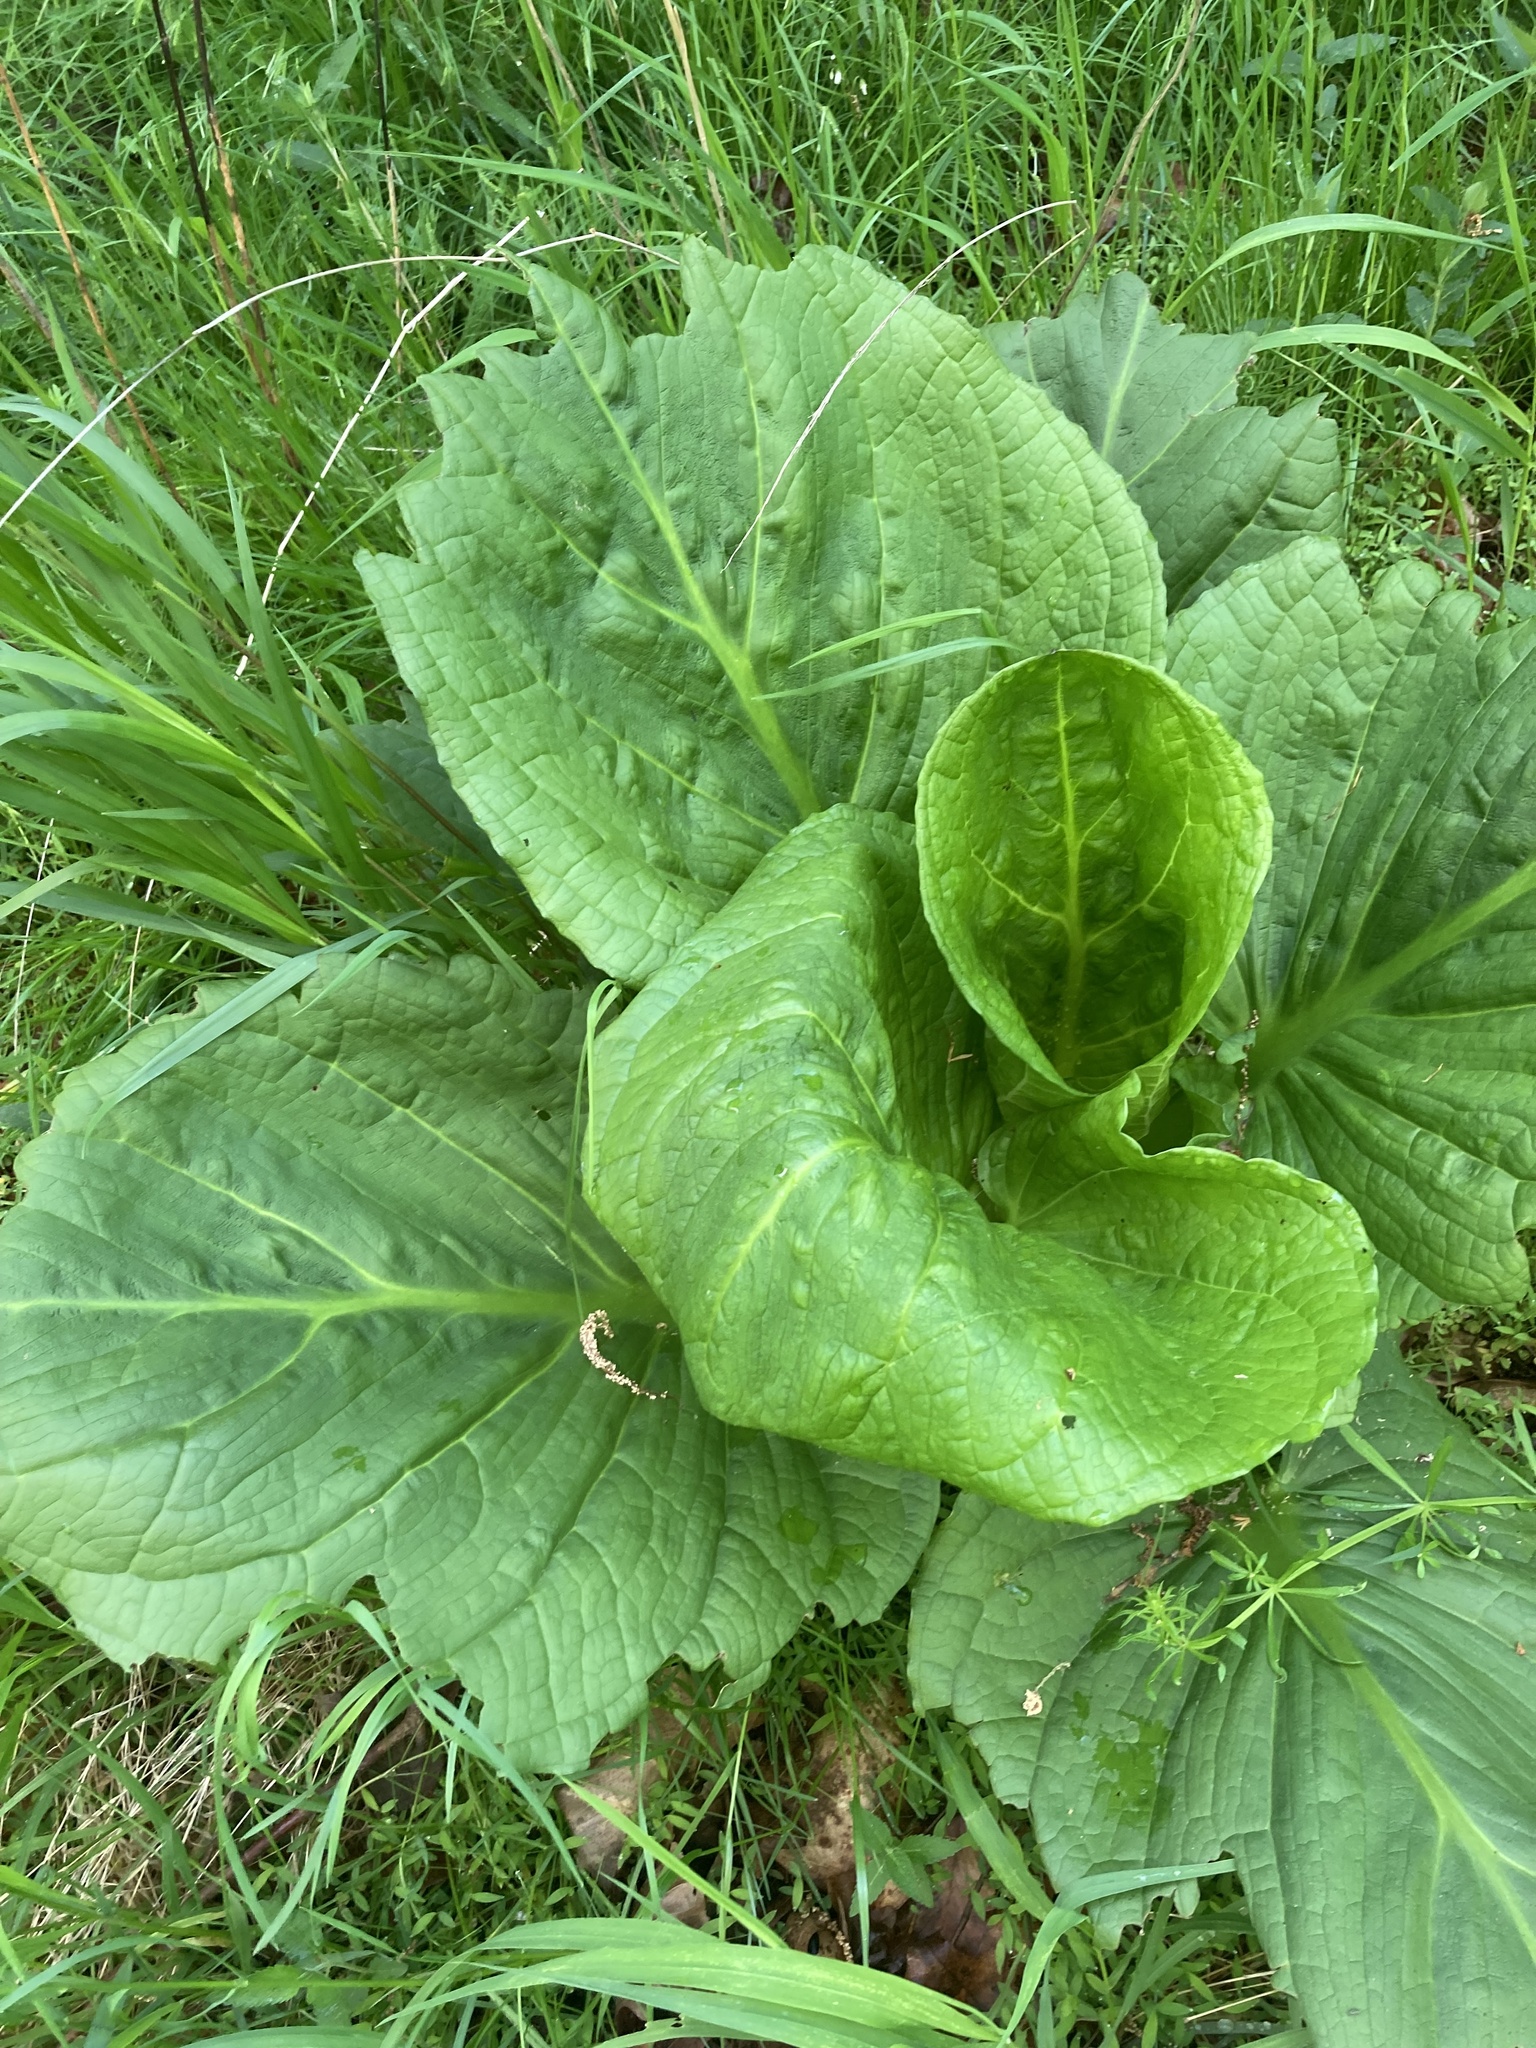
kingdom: Plantae
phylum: Tracheophyta
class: Liliopsida
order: Alismatales
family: Araceae
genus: Symplocarpus
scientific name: Symplocarpus foetidus
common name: Eastern skunk cabbage
